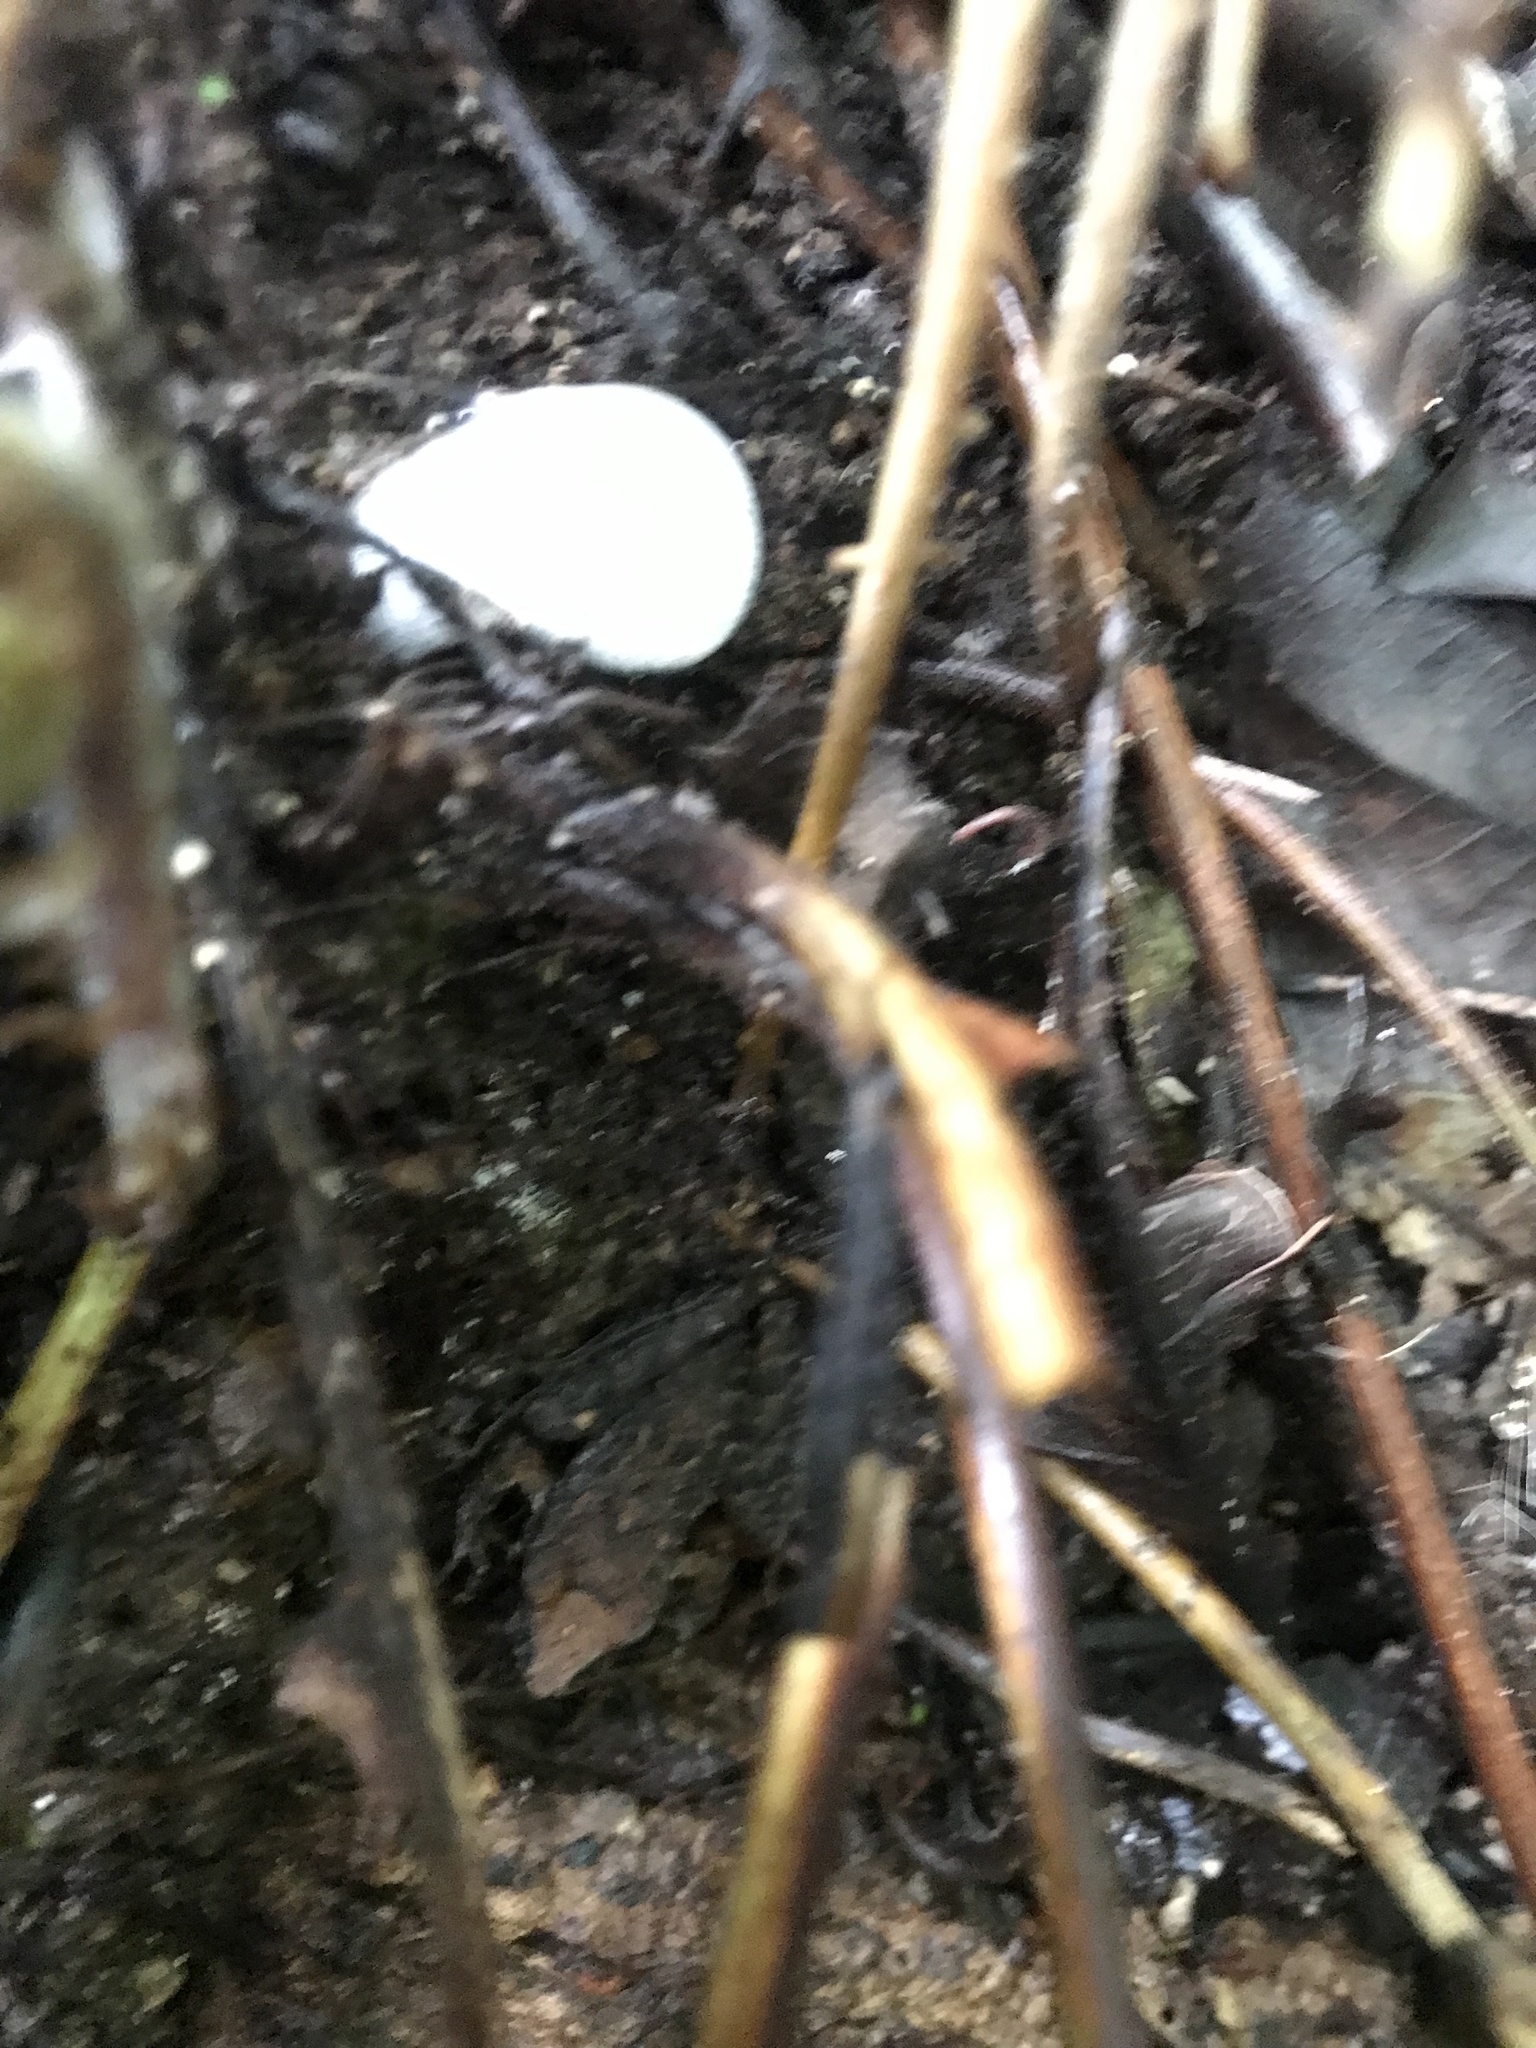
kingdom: Animalia
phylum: Chordata
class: Amphibia
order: Anura
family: Craugastoridae
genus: Craugastor
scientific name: Craugastor fitzingeri
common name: Fitzinger's robber frog
